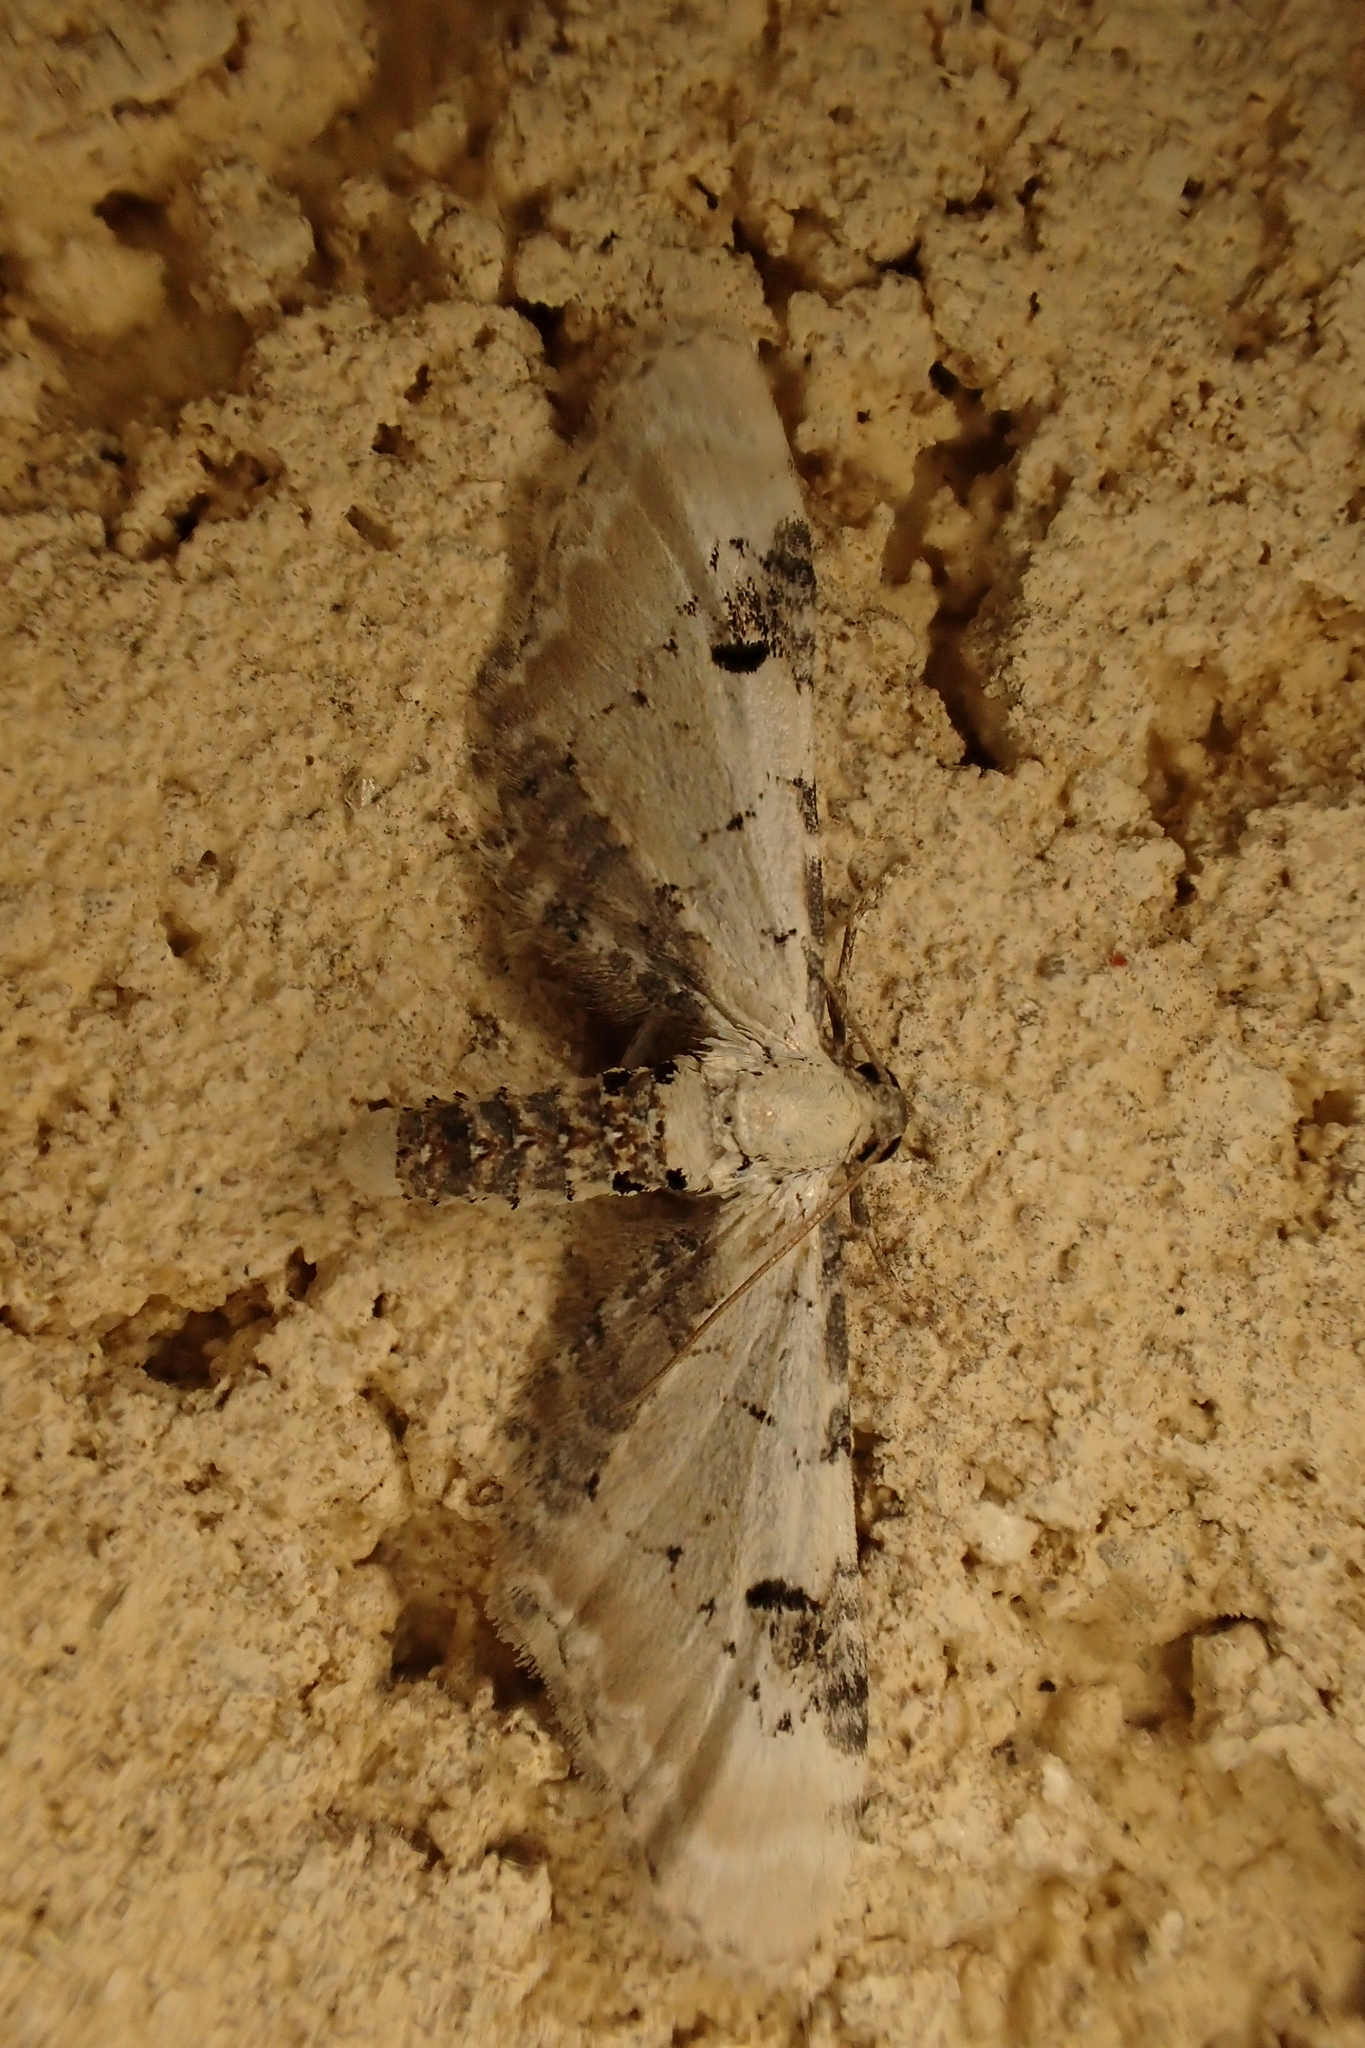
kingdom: Animalia
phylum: Arthropoda
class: Insecta
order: Lepidoptera
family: Geometridae
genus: Eupithecia
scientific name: Eupithecia centaureata
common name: Lime-speck pug
